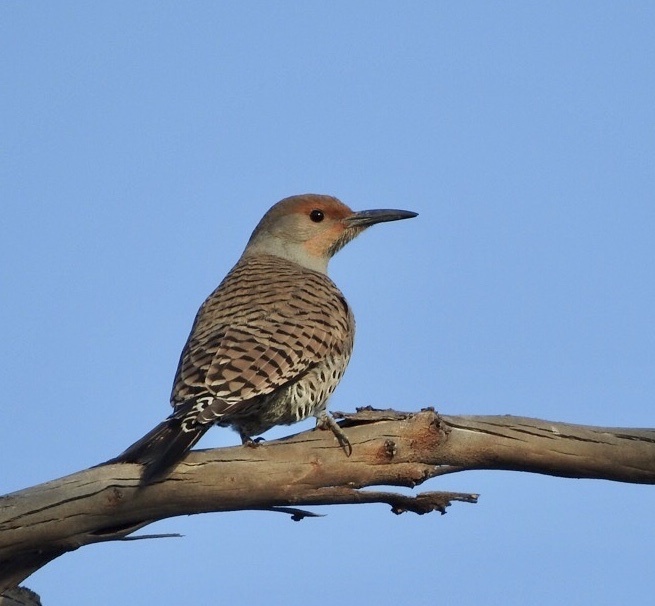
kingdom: Animalia
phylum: Chordata
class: Aves
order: Piciformes
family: Picidae
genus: Colaptes
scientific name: Colaptes auratus
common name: Northern flicker
